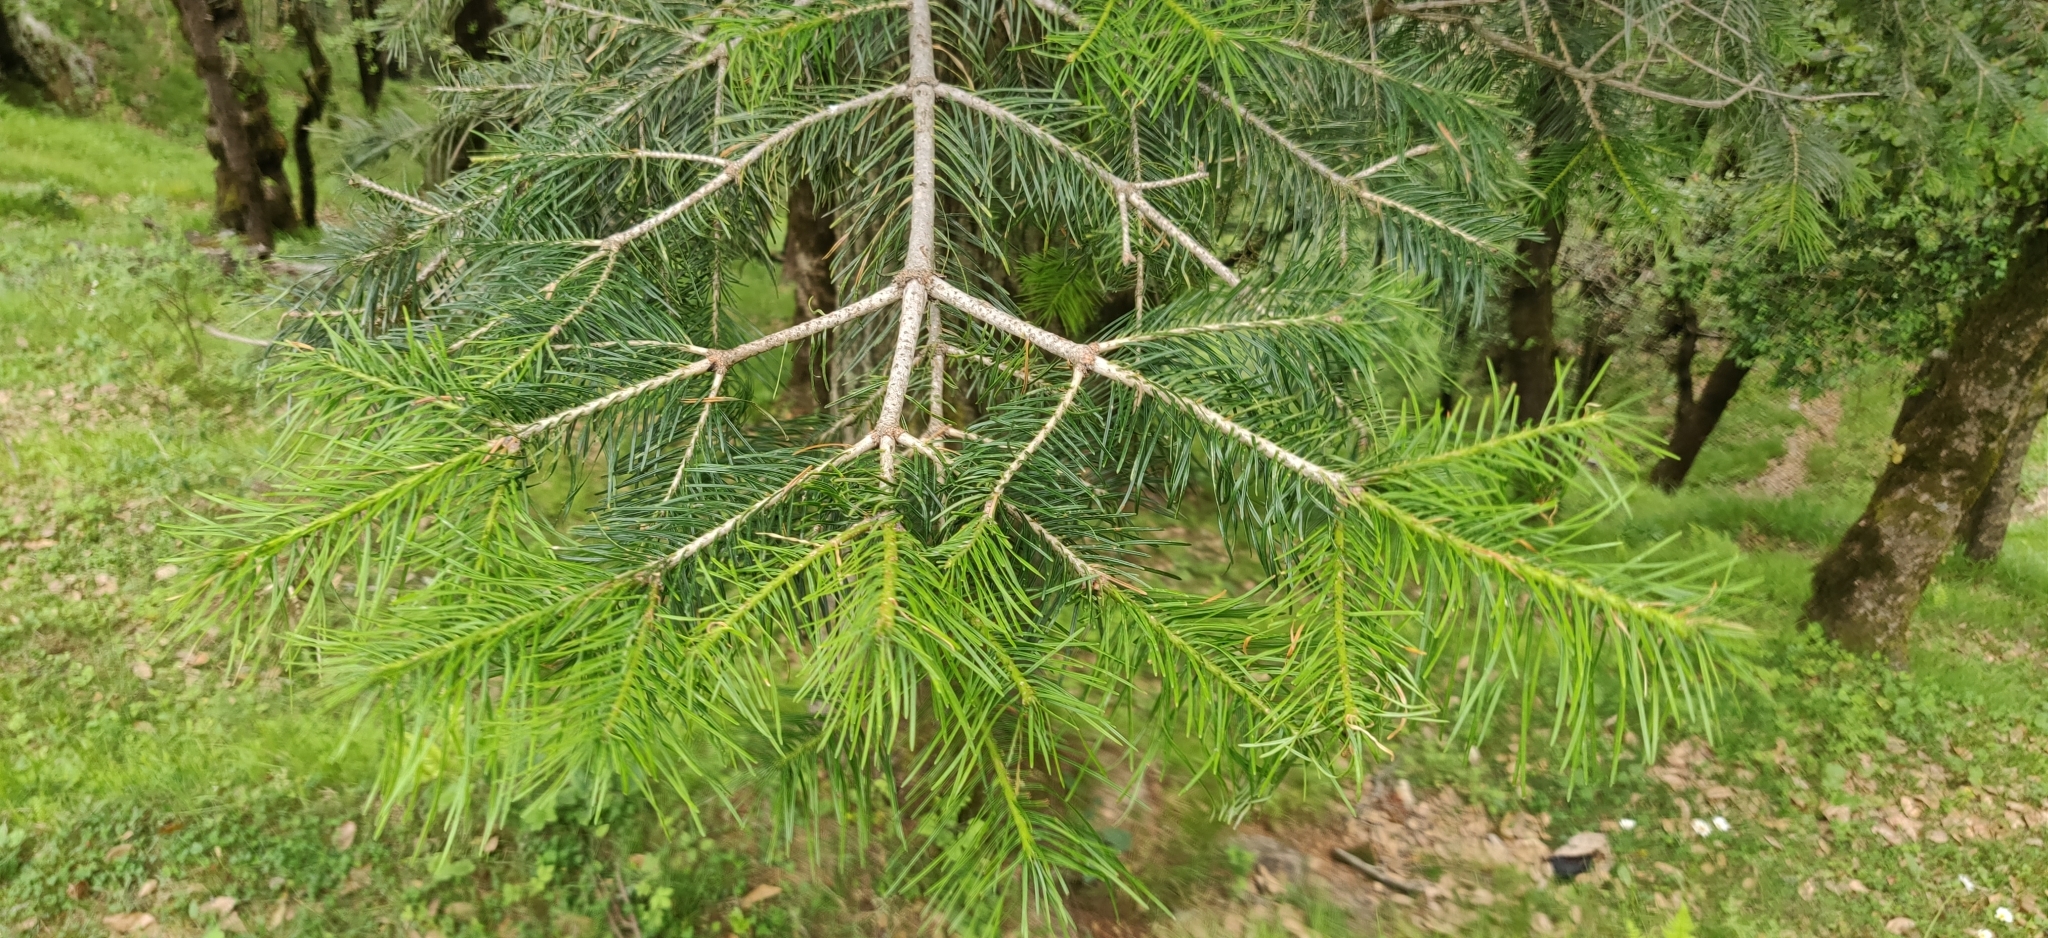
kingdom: Plantae
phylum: Tracheophyta
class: Pinopsida
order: Pinales
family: Pinaceae
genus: Abies
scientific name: Abies pindrow
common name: Pindrow fir
